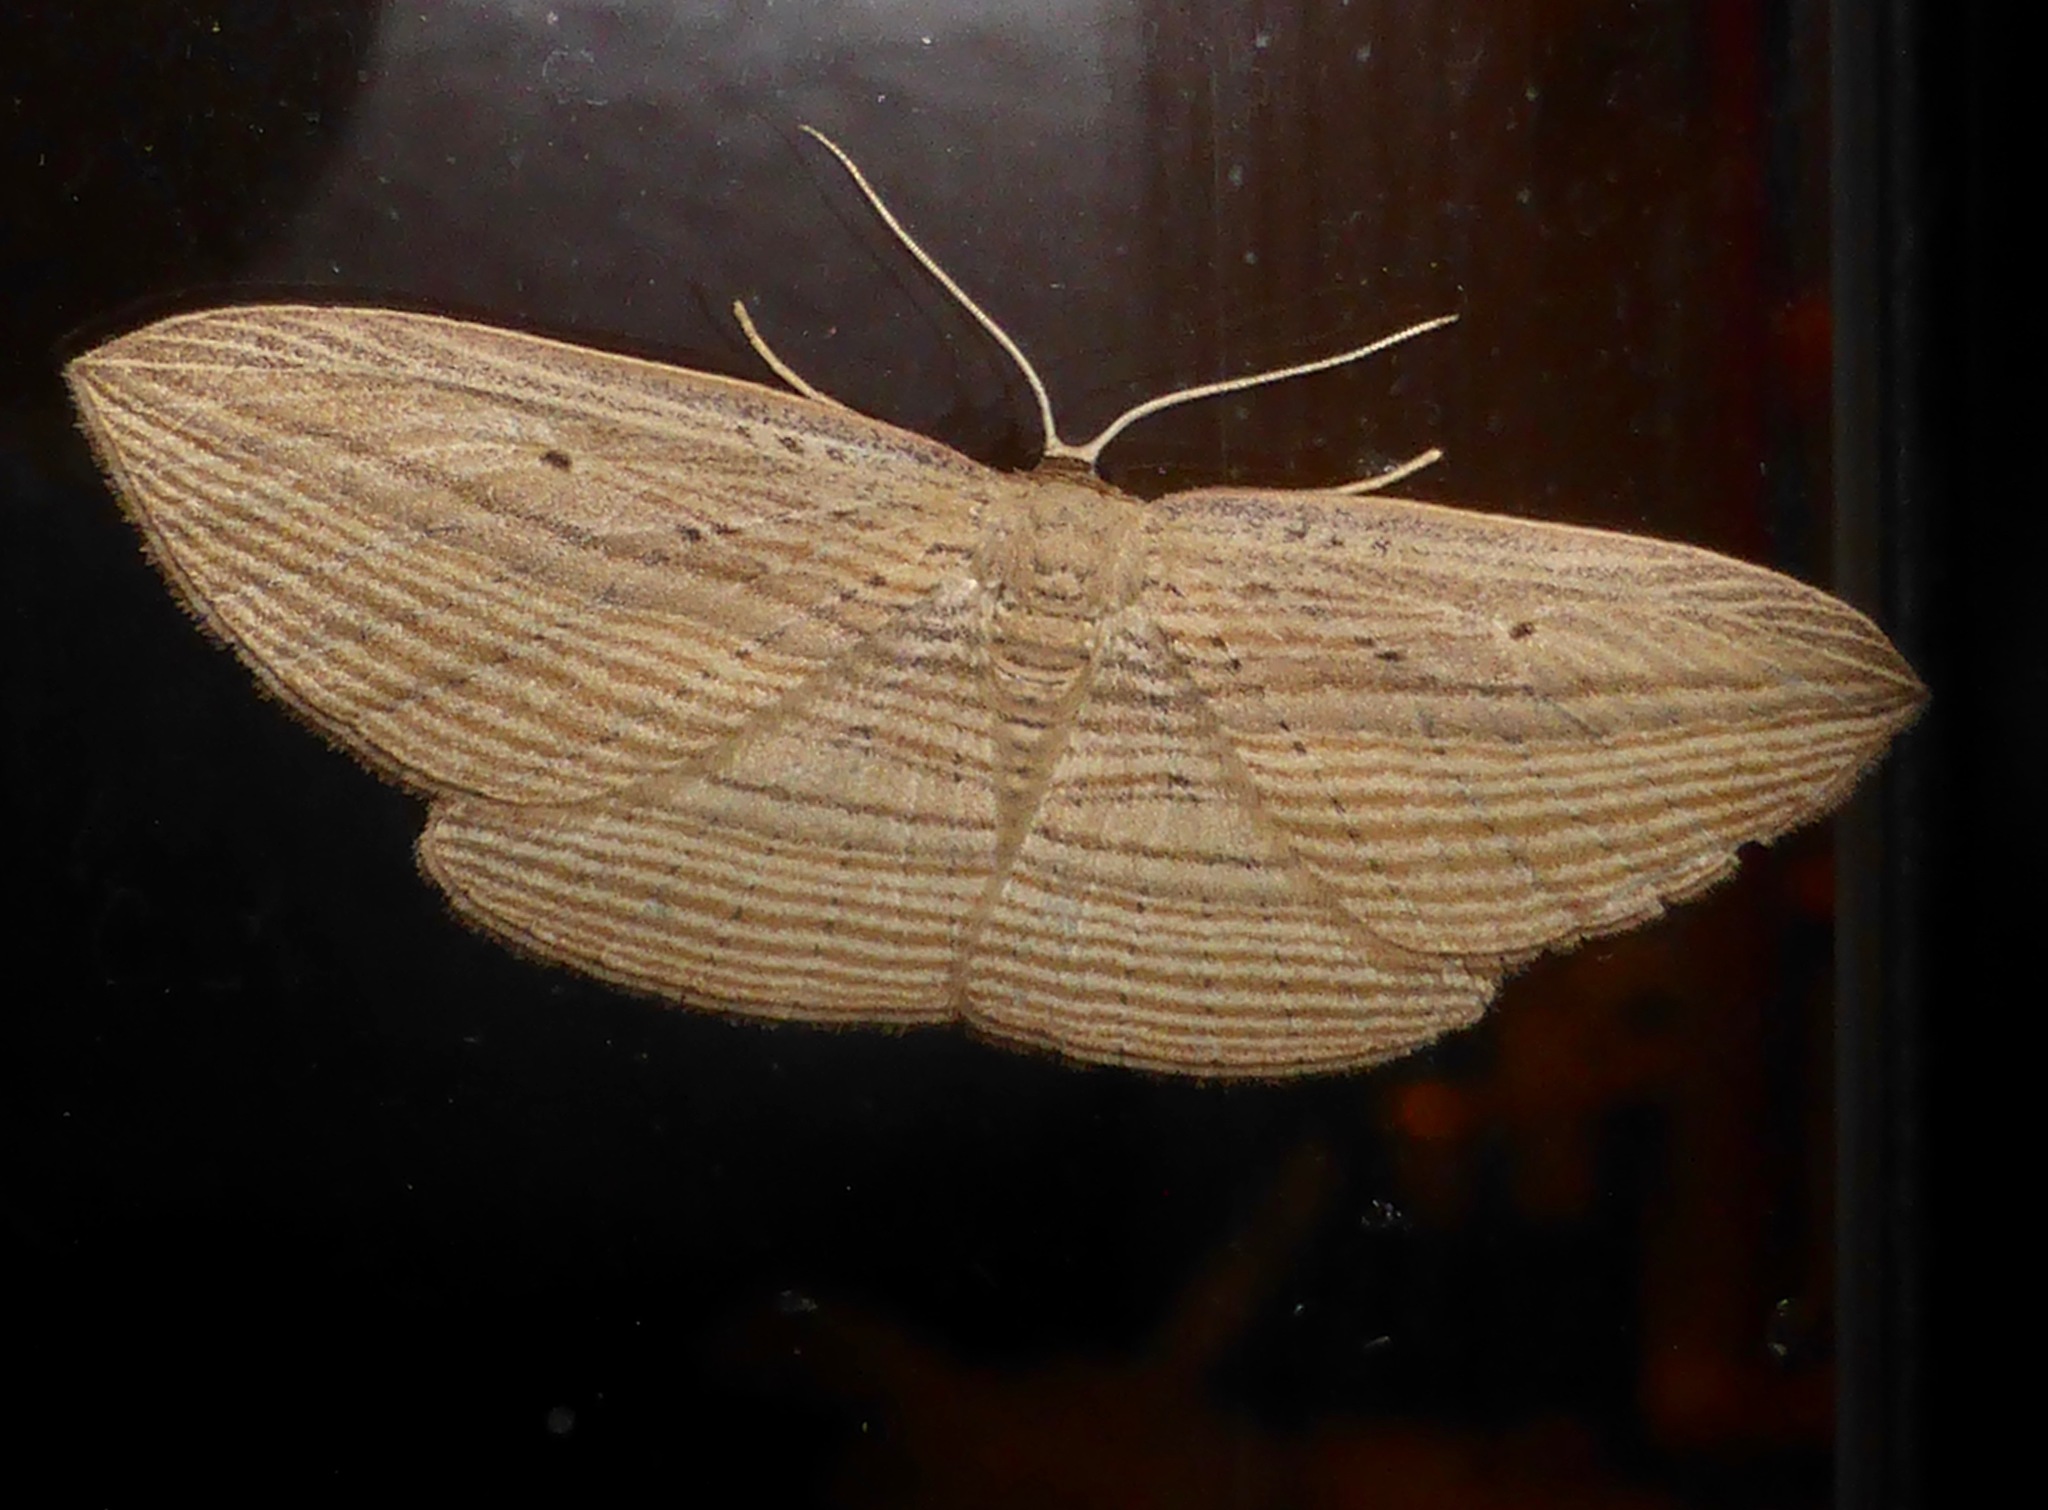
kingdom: Animalia
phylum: Arthropoda
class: Insecta
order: Lepidoptera
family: Geometridae
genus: Epiphryne
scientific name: Epiphryne verriculata
